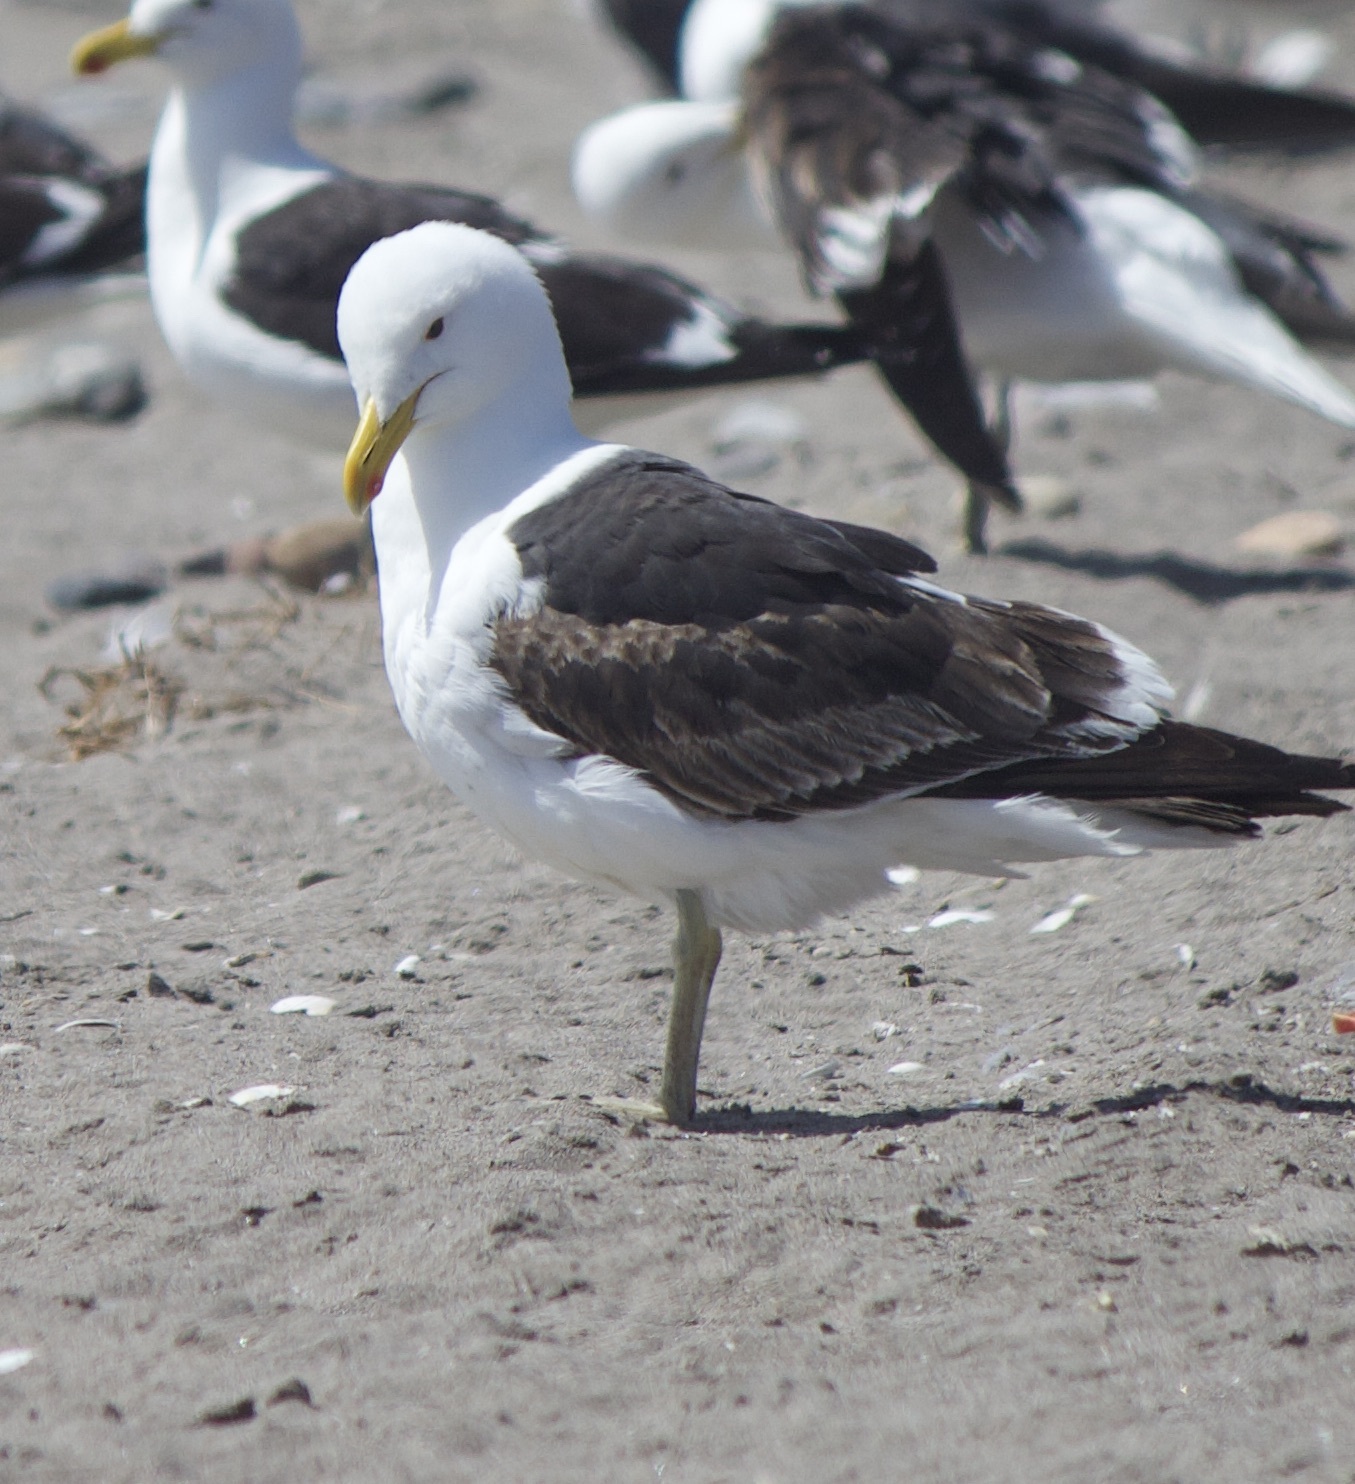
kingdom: Animalia
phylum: Chordata
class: Aves
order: Charadriiformes
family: Laridae
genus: Larus
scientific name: Larus dominicanus
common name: Kelp gull
